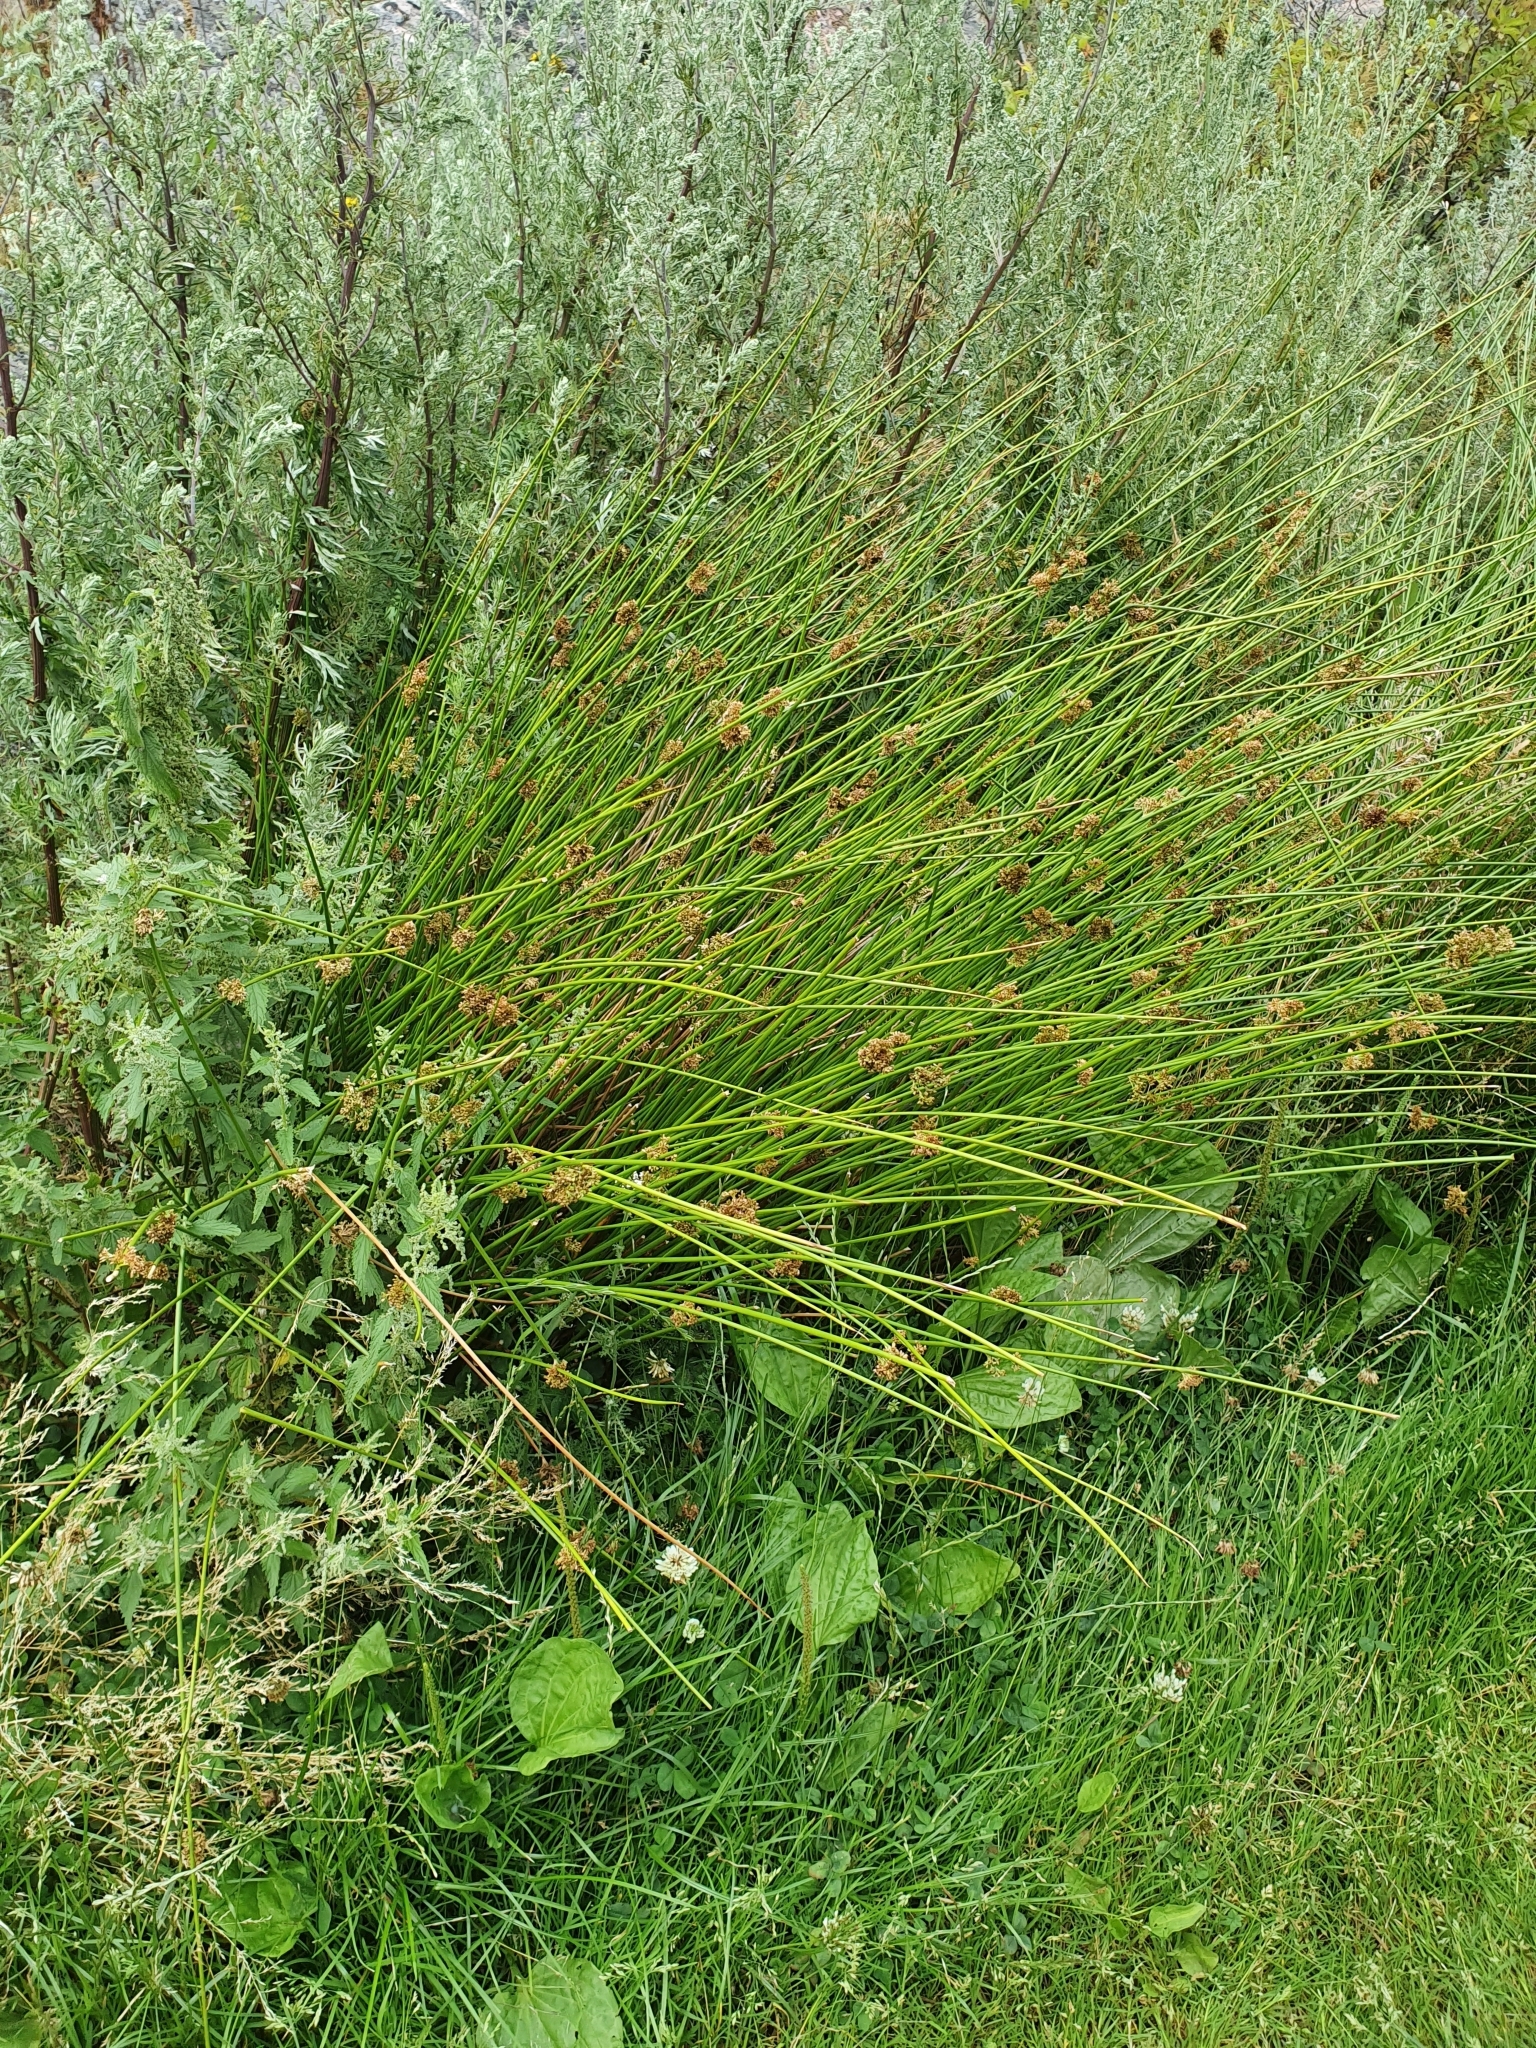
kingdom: Plantae
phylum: Tracheophyta
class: Liliopsida
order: Poales
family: Juncaceae
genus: Juncus
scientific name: Juncus effusus
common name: Soft rush
